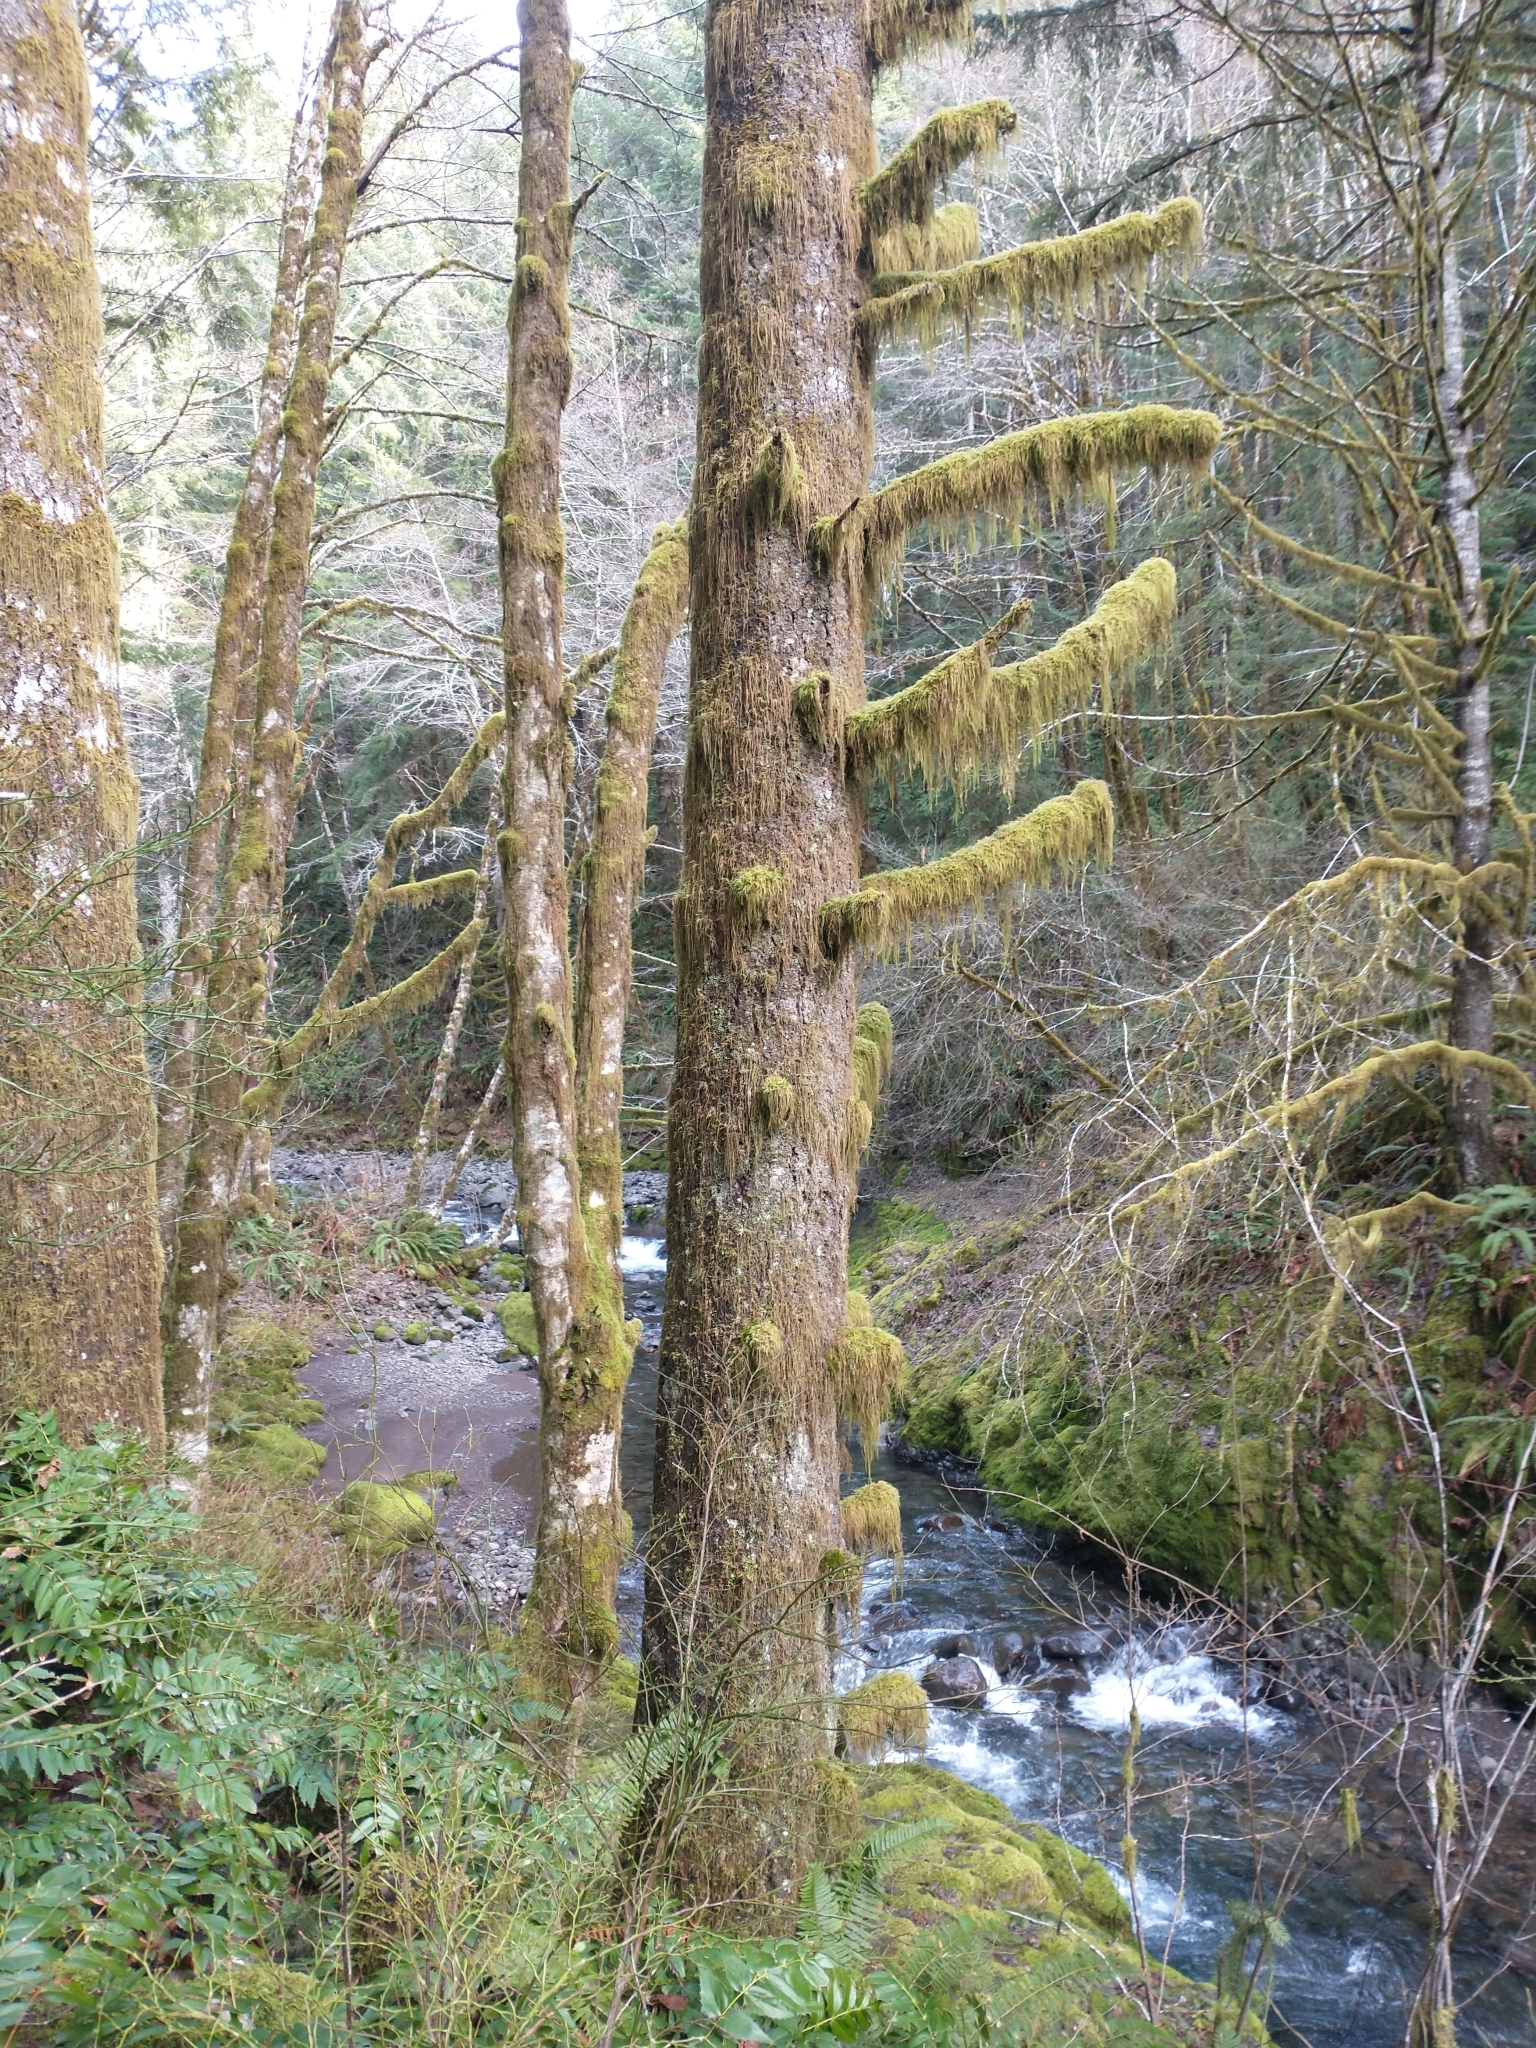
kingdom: Plantae
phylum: Tracheophyta
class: Pinopsida
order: Pinales
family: Pinaceae
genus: Pseudotsuga
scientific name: Pseudotsuga menziesii
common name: Douglas fir
